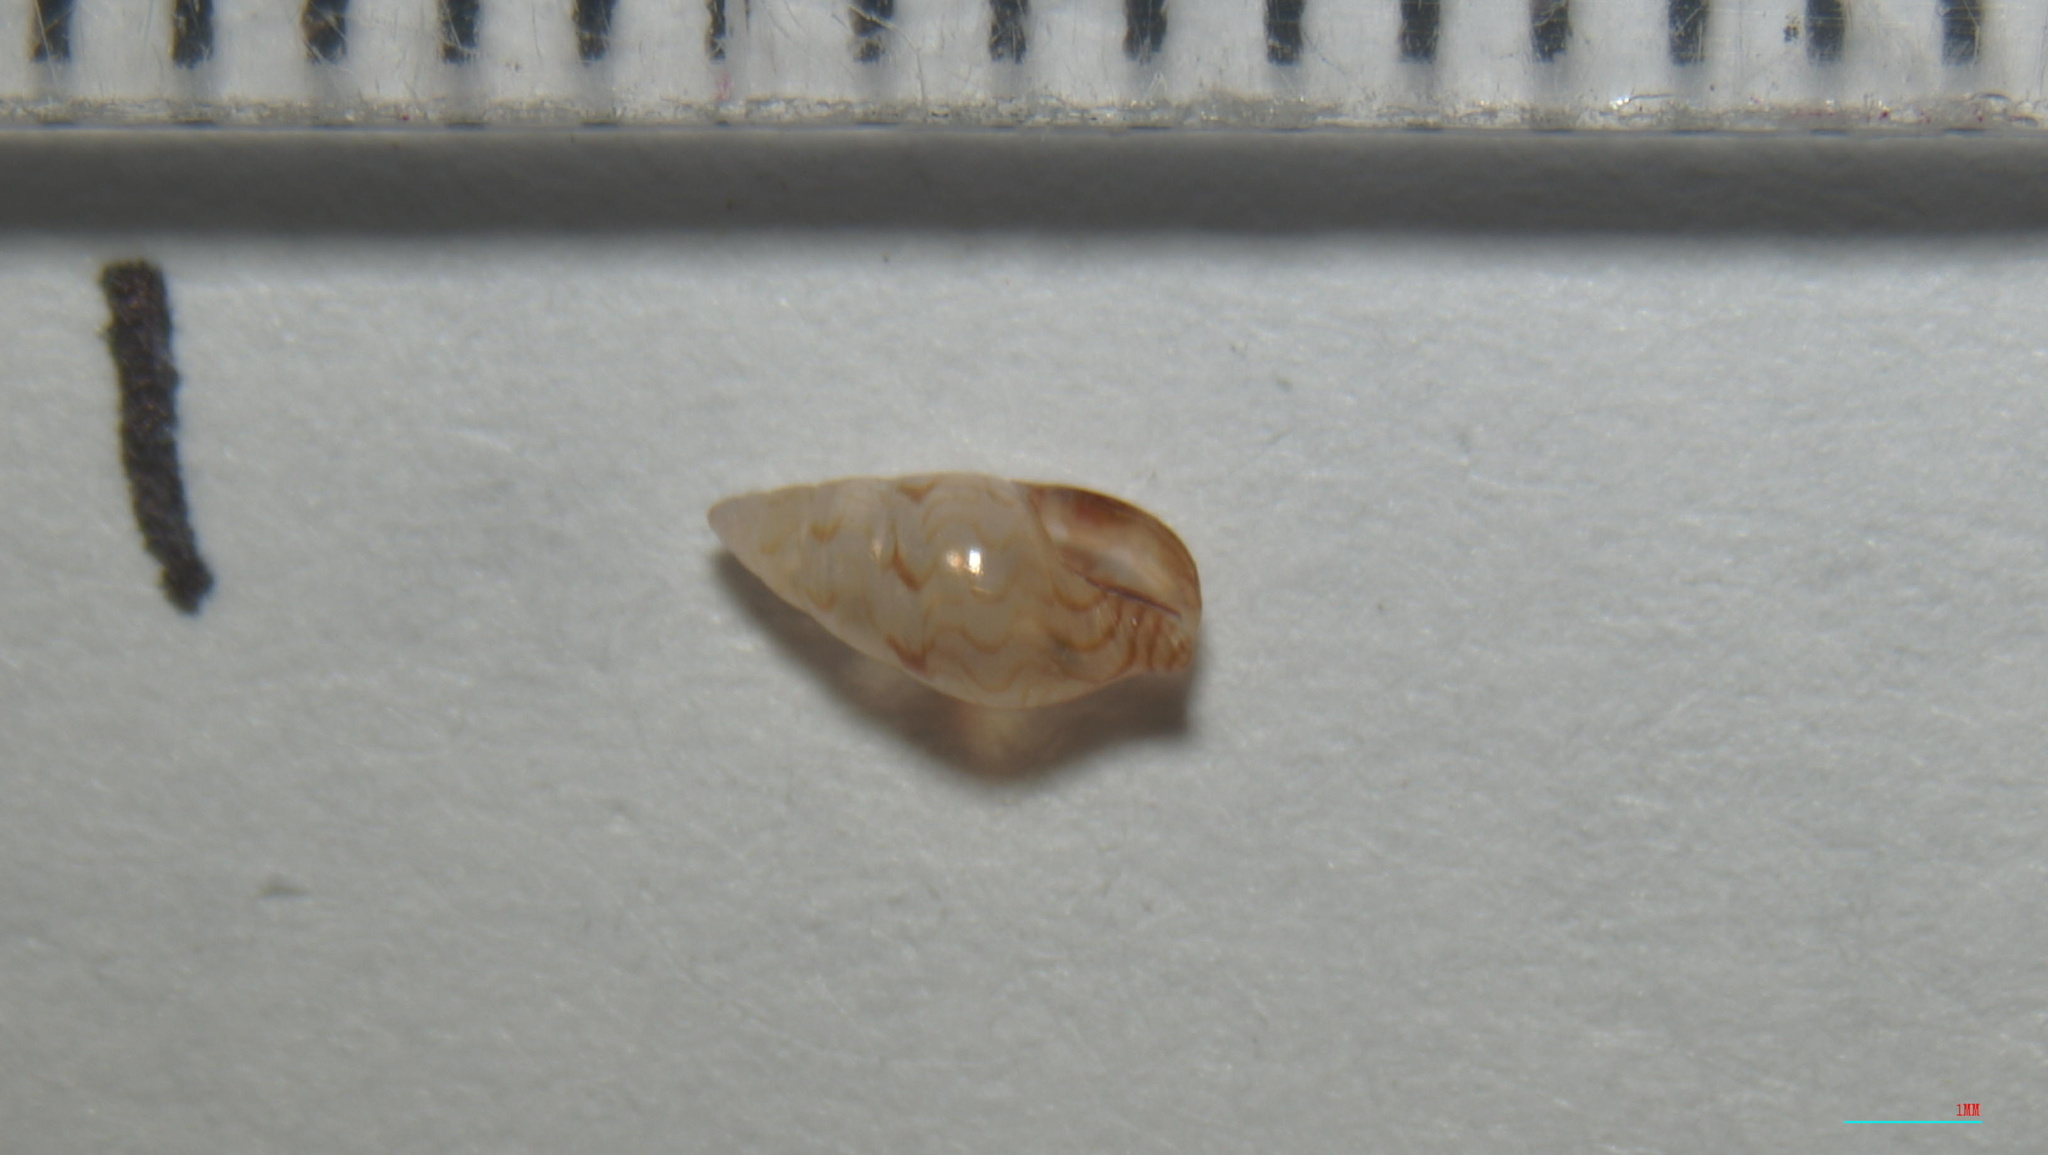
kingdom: Animalia
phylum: Mollusca
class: Gastropoda
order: Neogastropoda
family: Columbellidae
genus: Astyris
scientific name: Astyris lunata
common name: Lunar dovesnail
